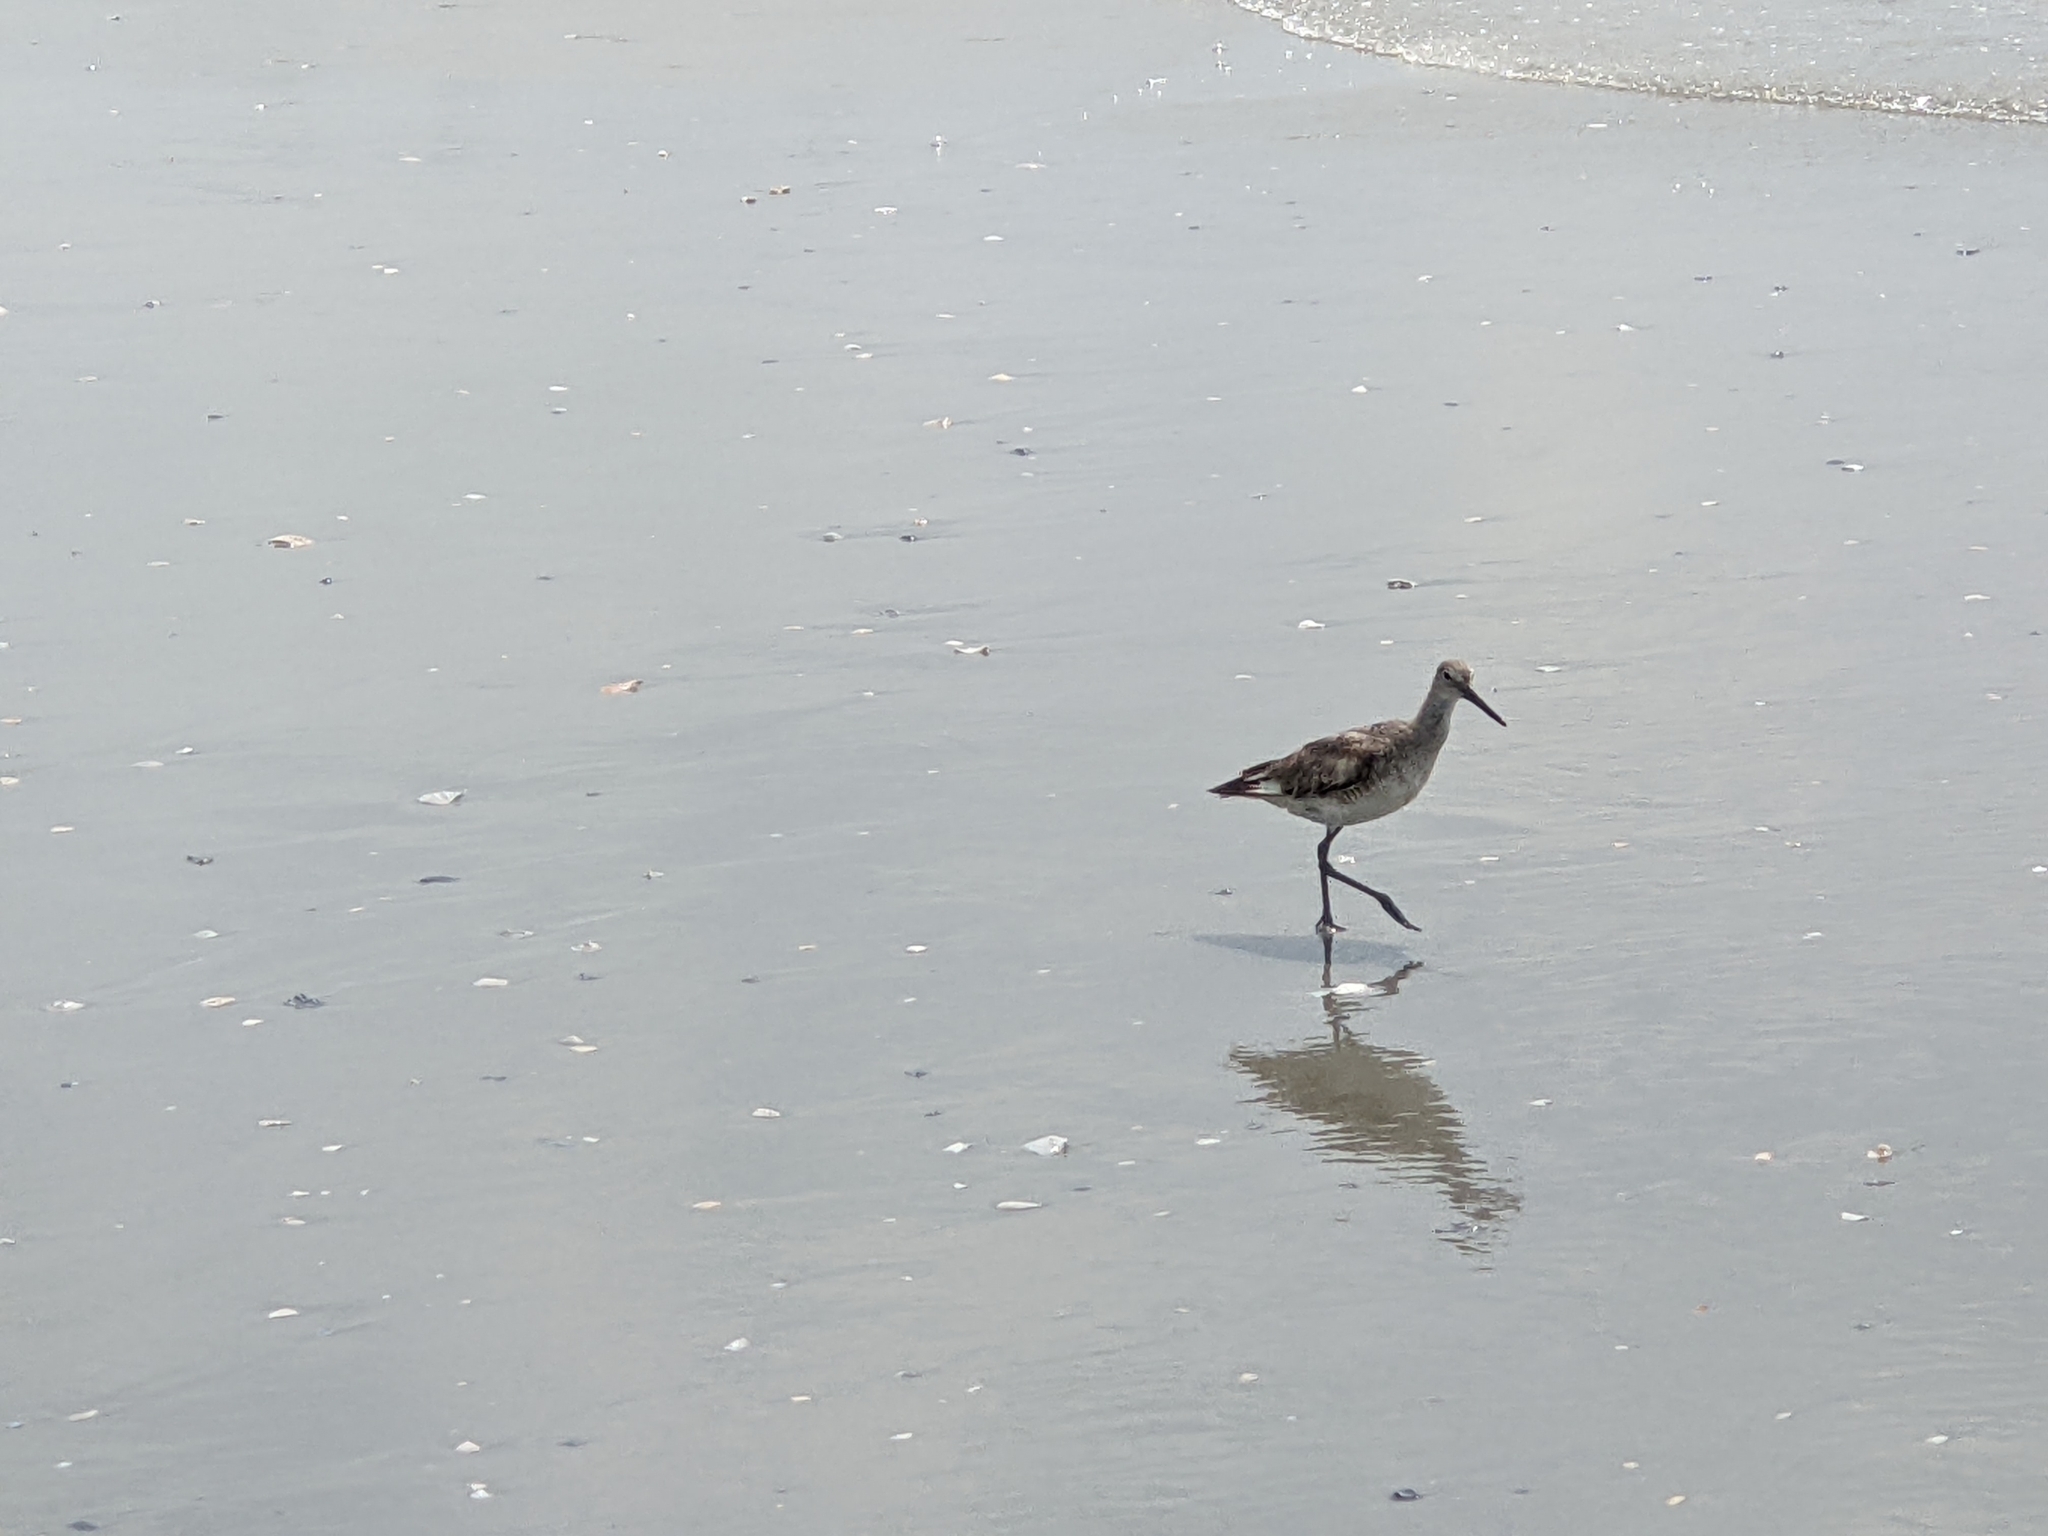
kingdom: Animalia
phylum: Chordata
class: Aves
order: Charadriiformes
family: Scolopacidae
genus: Tringa
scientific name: Tringa semipalmata
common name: Willet
